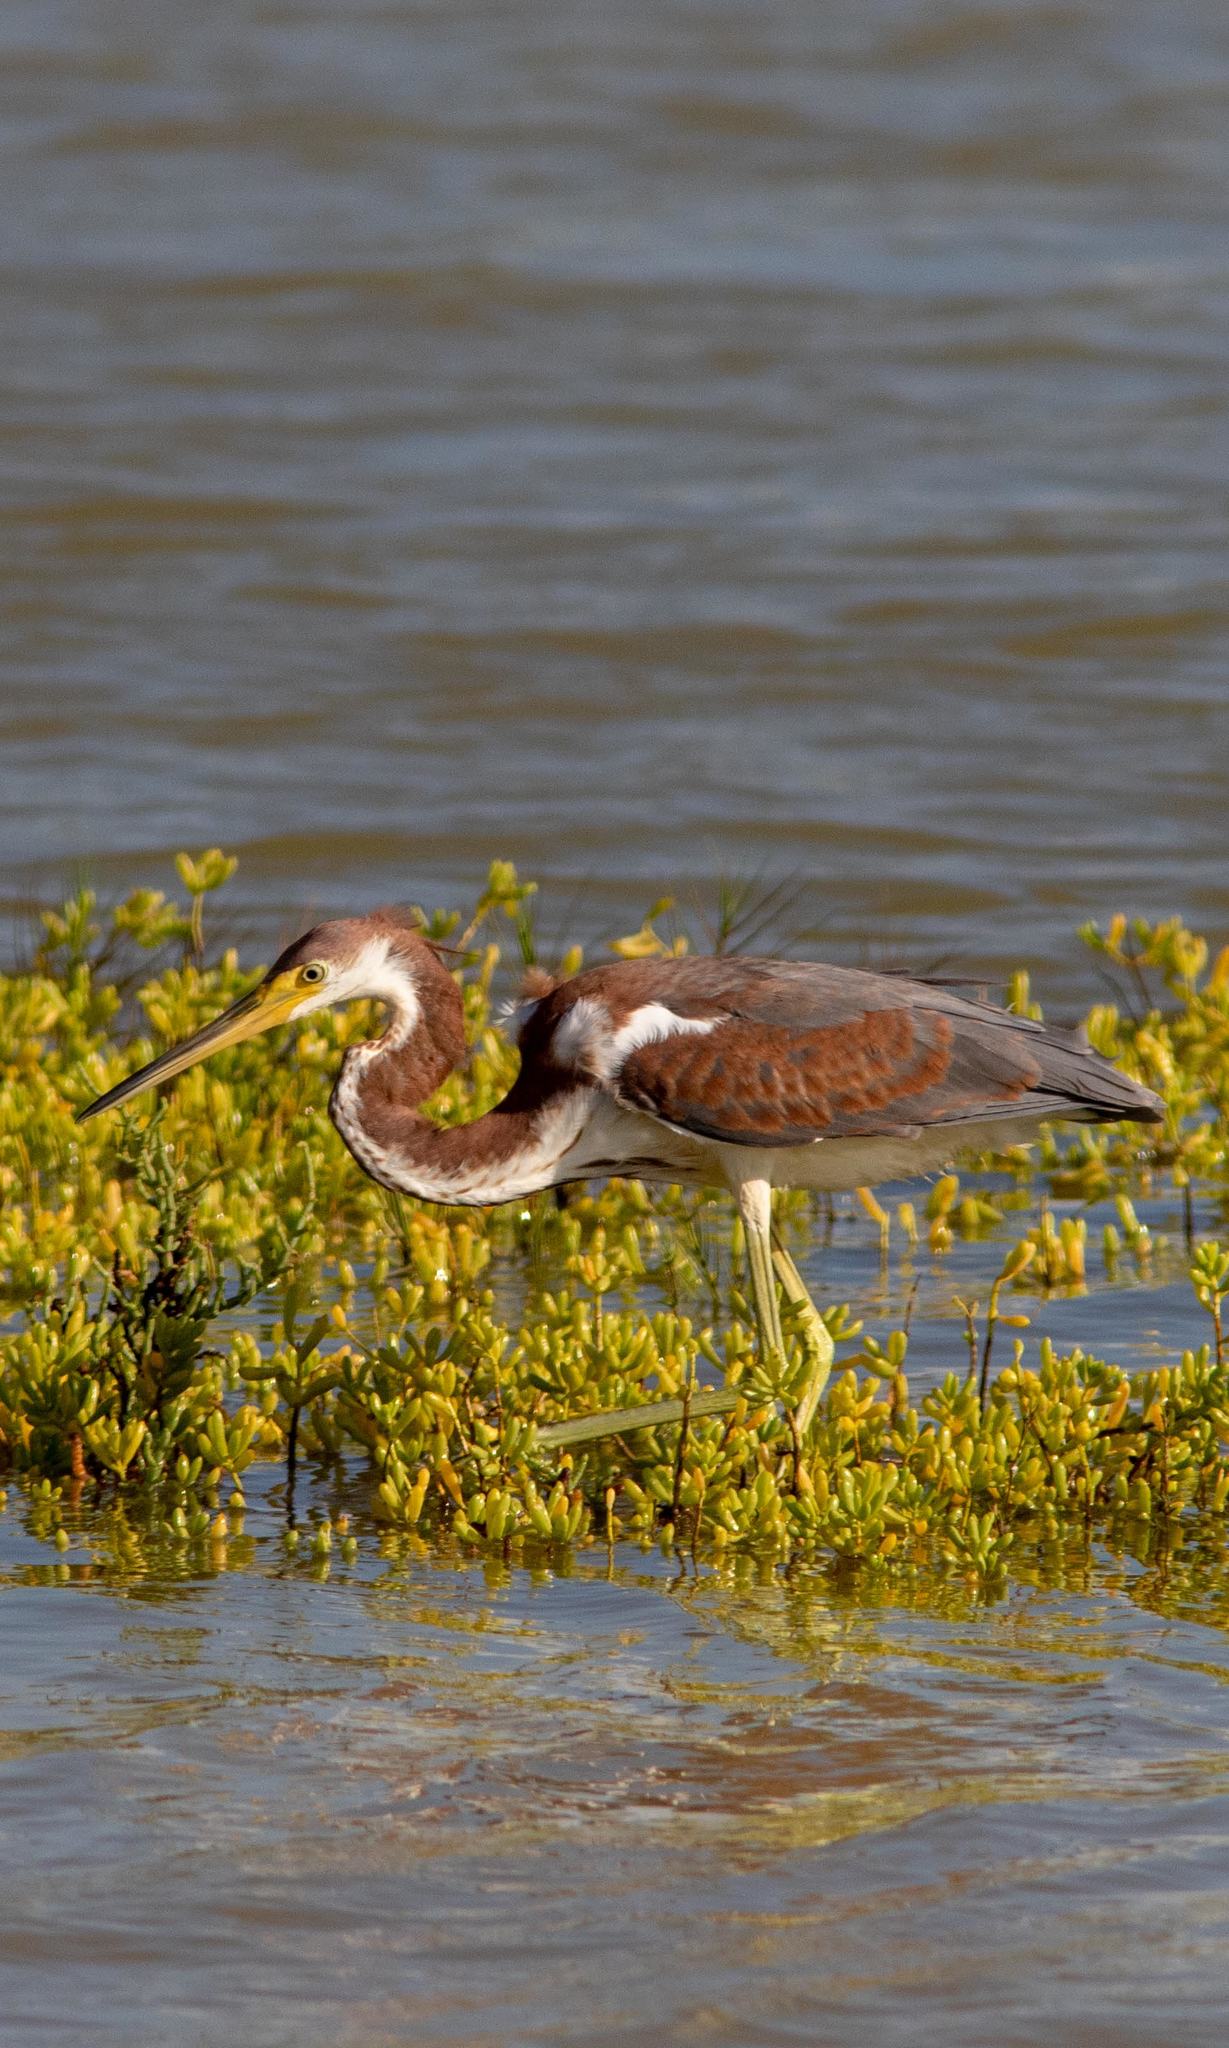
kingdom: Animalia
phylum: Chordata
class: Aves
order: Pelecaniformes
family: Ardeidae
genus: Egretta
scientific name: Egretta tricolor
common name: Tricolored heron
